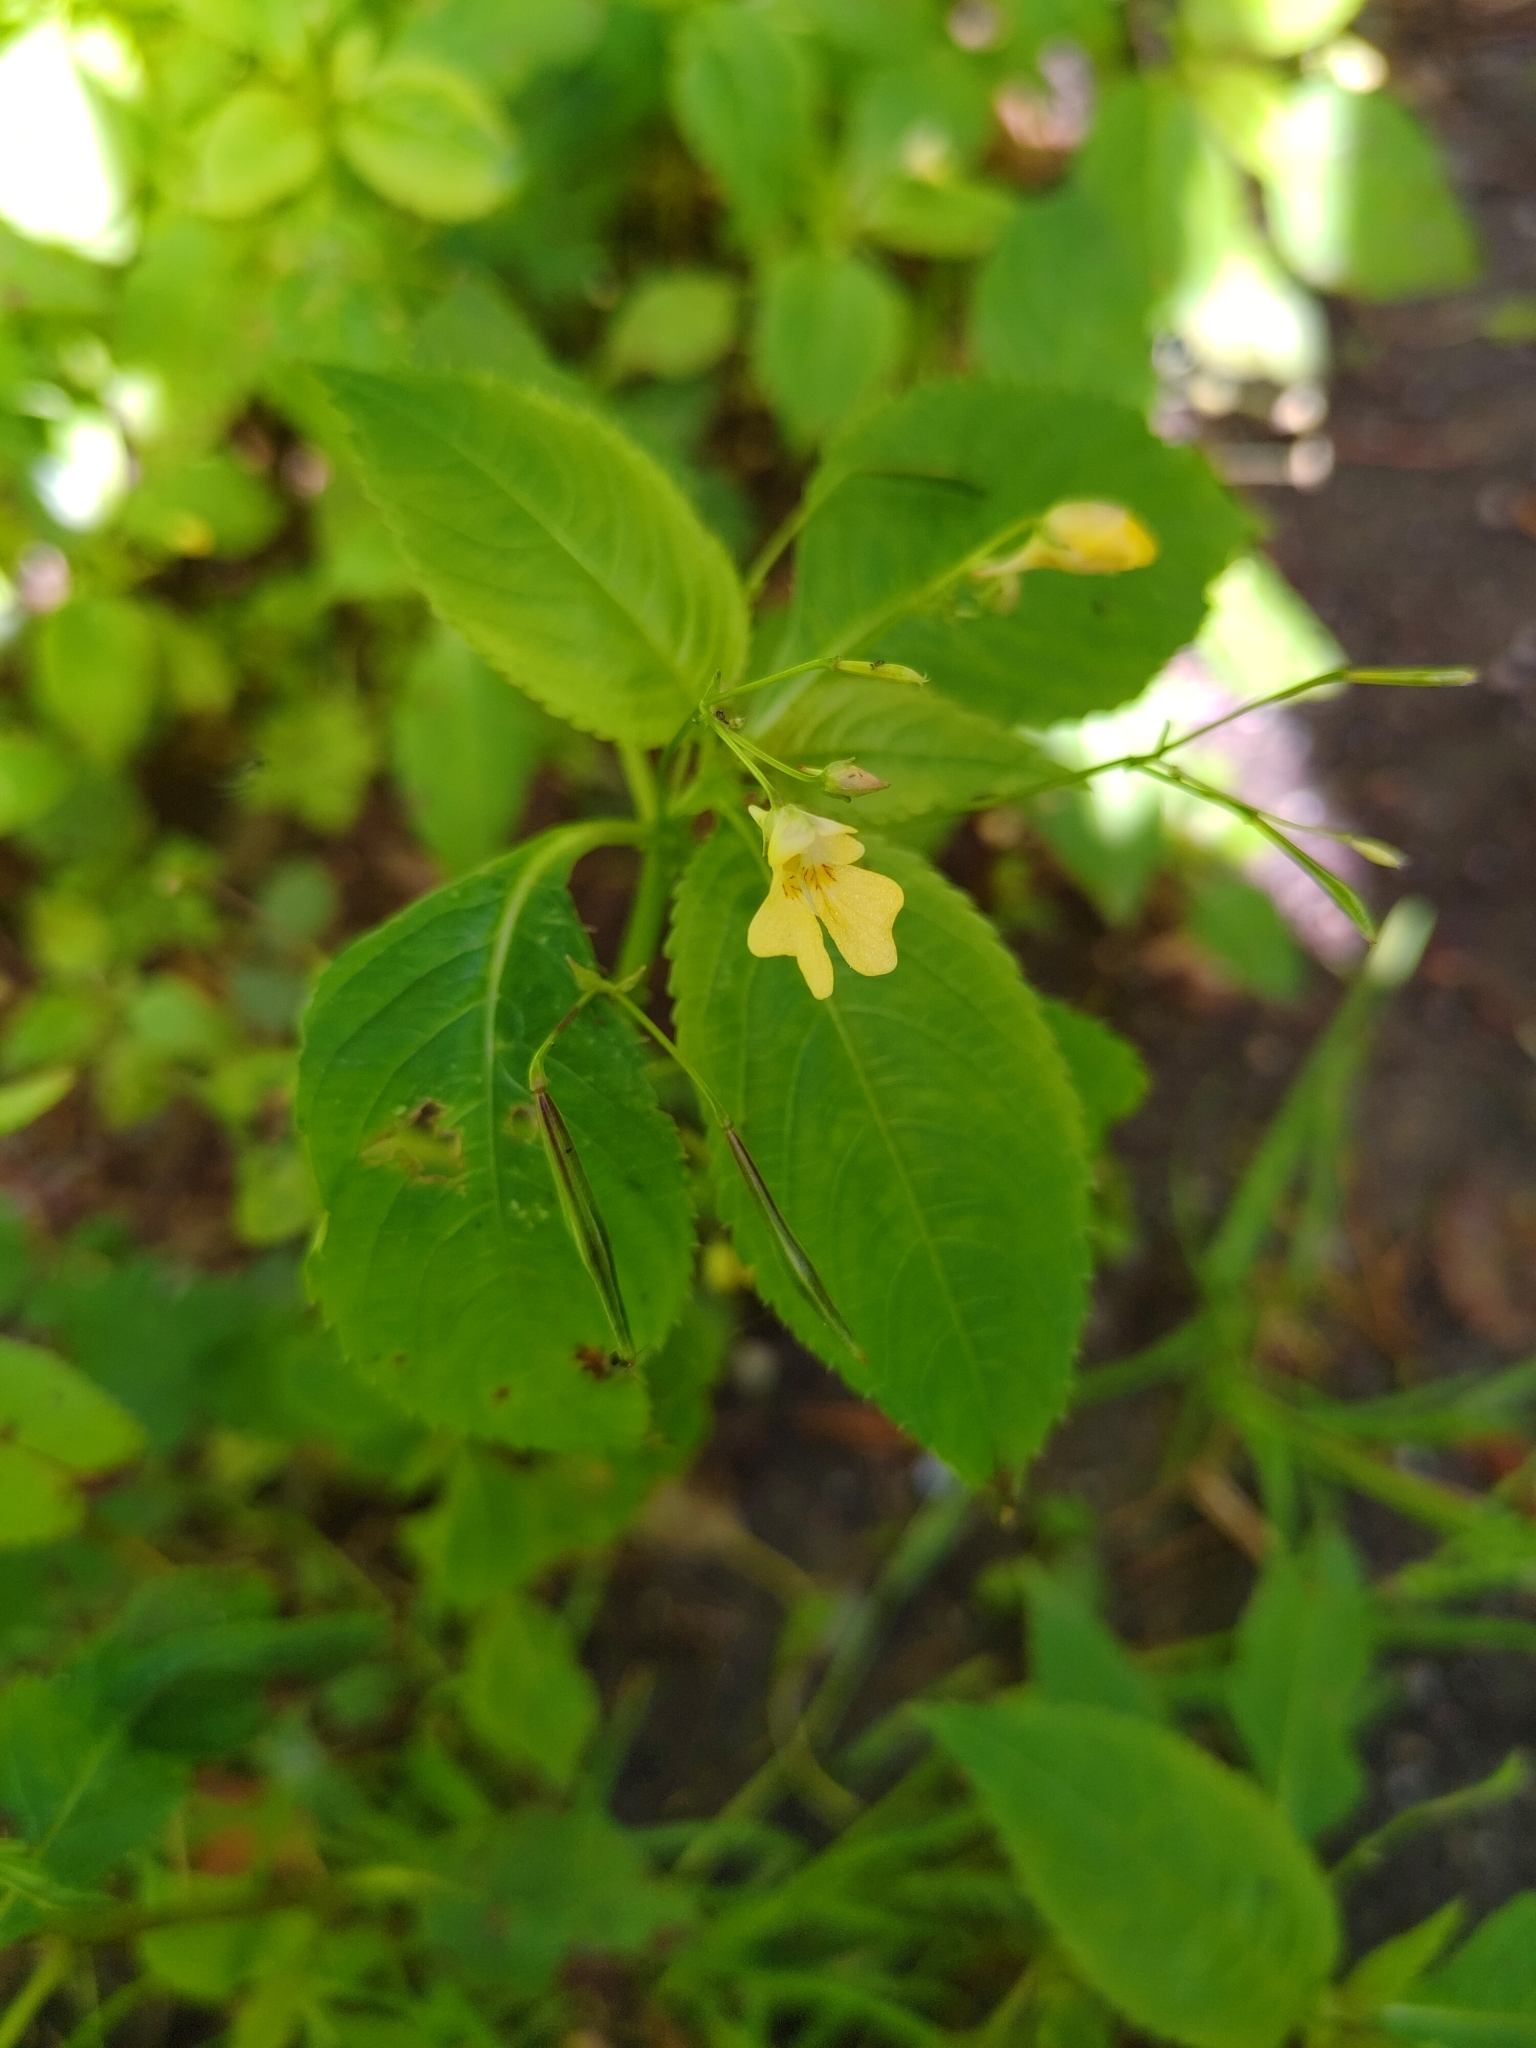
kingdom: Plantae
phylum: Tracheophyta
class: Magnoliopsida
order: Ericales
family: Balsaminaceae
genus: Impatiens
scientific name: Impatiens parviflora
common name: Small balsam
